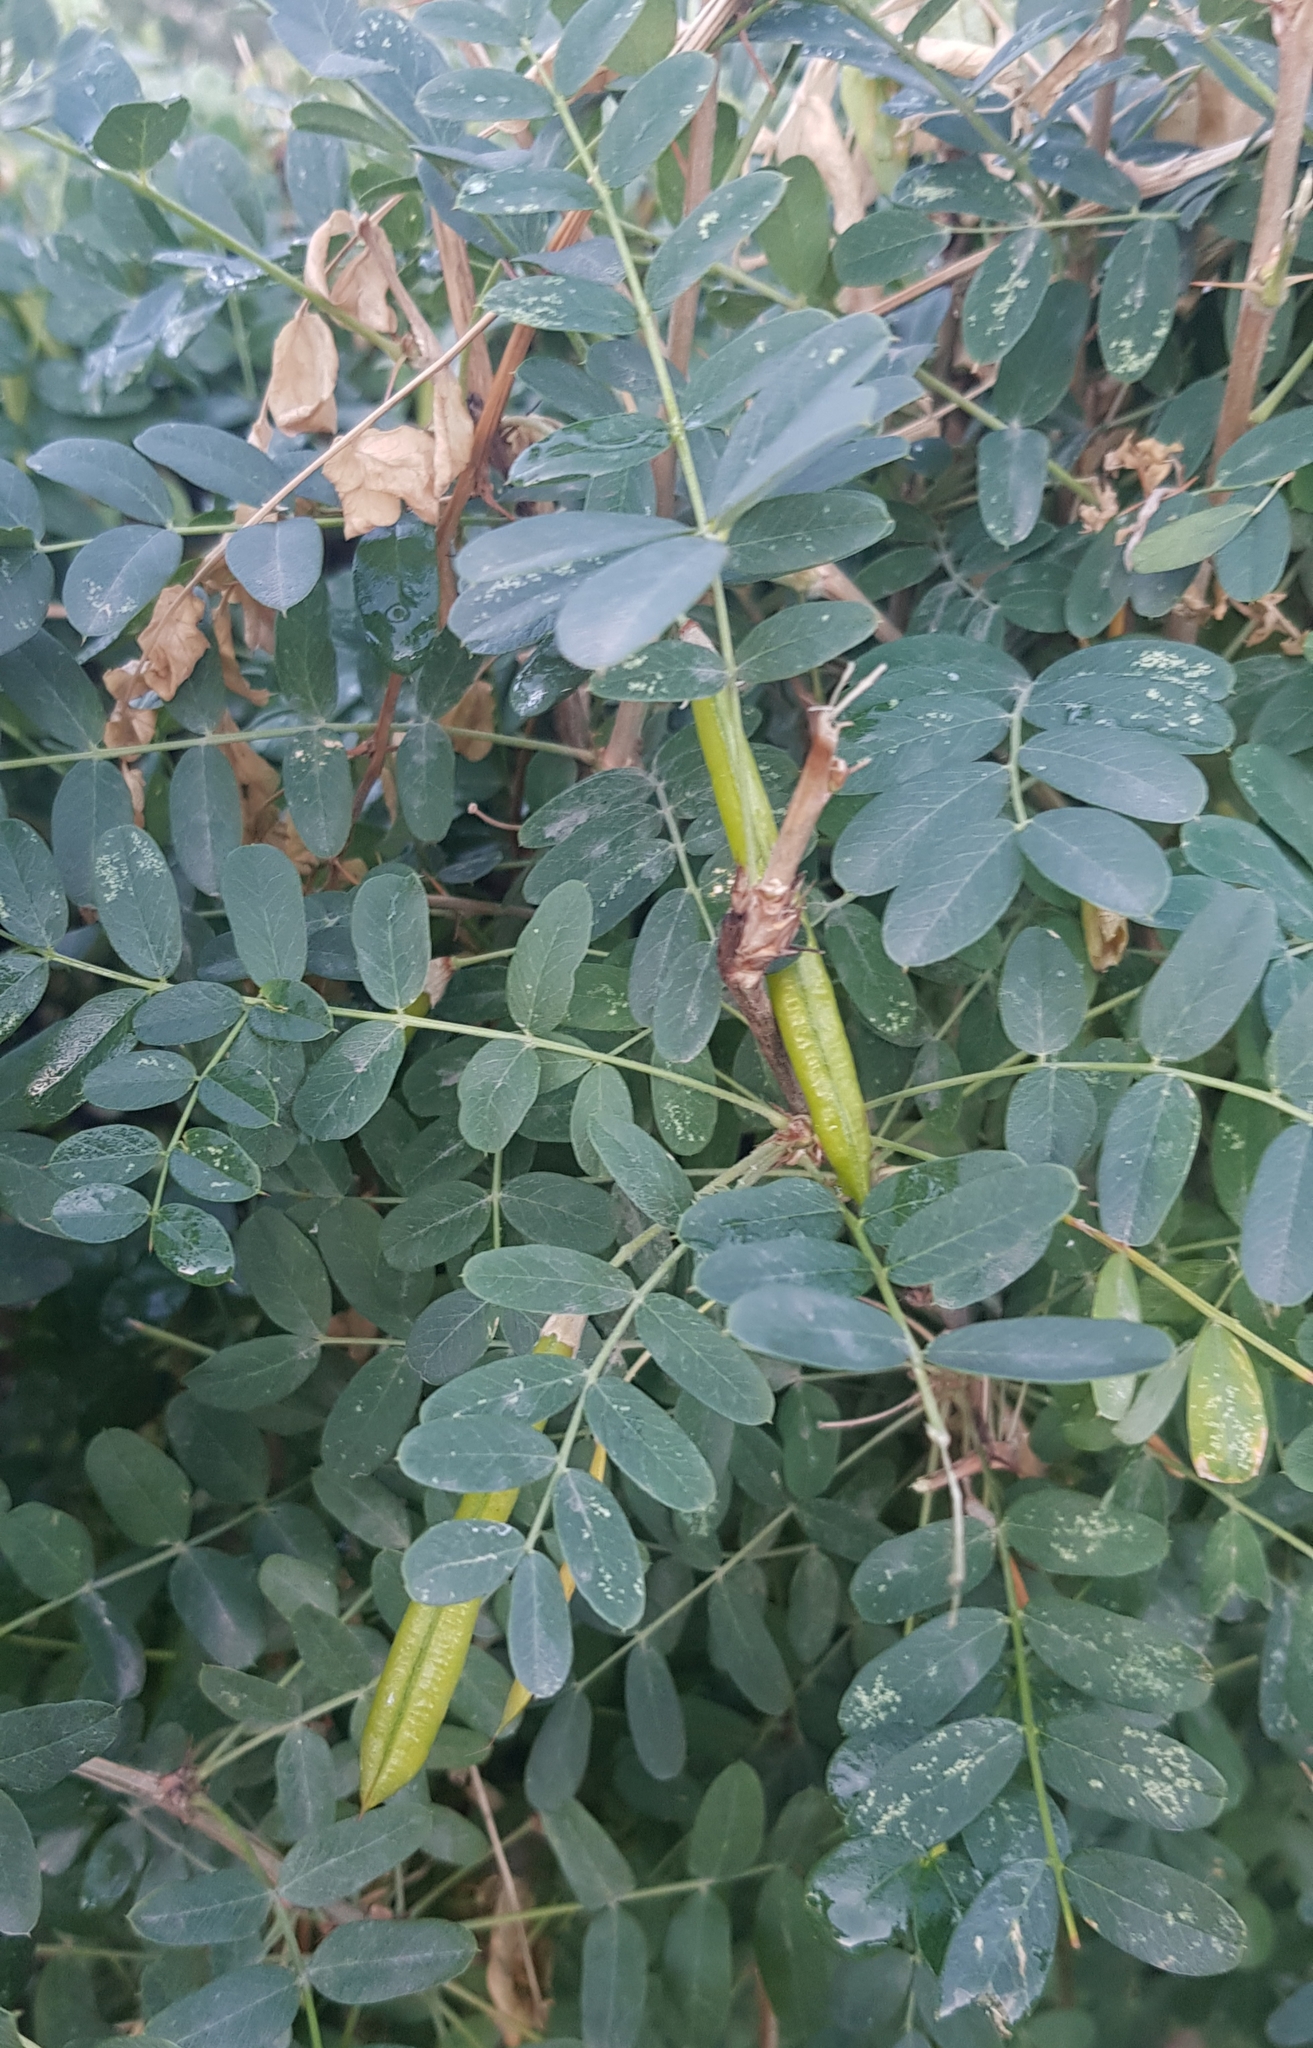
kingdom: Plantae
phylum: Tracheophyta
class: Magnoliopsida
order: Fabales
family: Fabaceae
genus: Caragana
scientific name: Caragana arborescens
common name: Siberian peashrub
